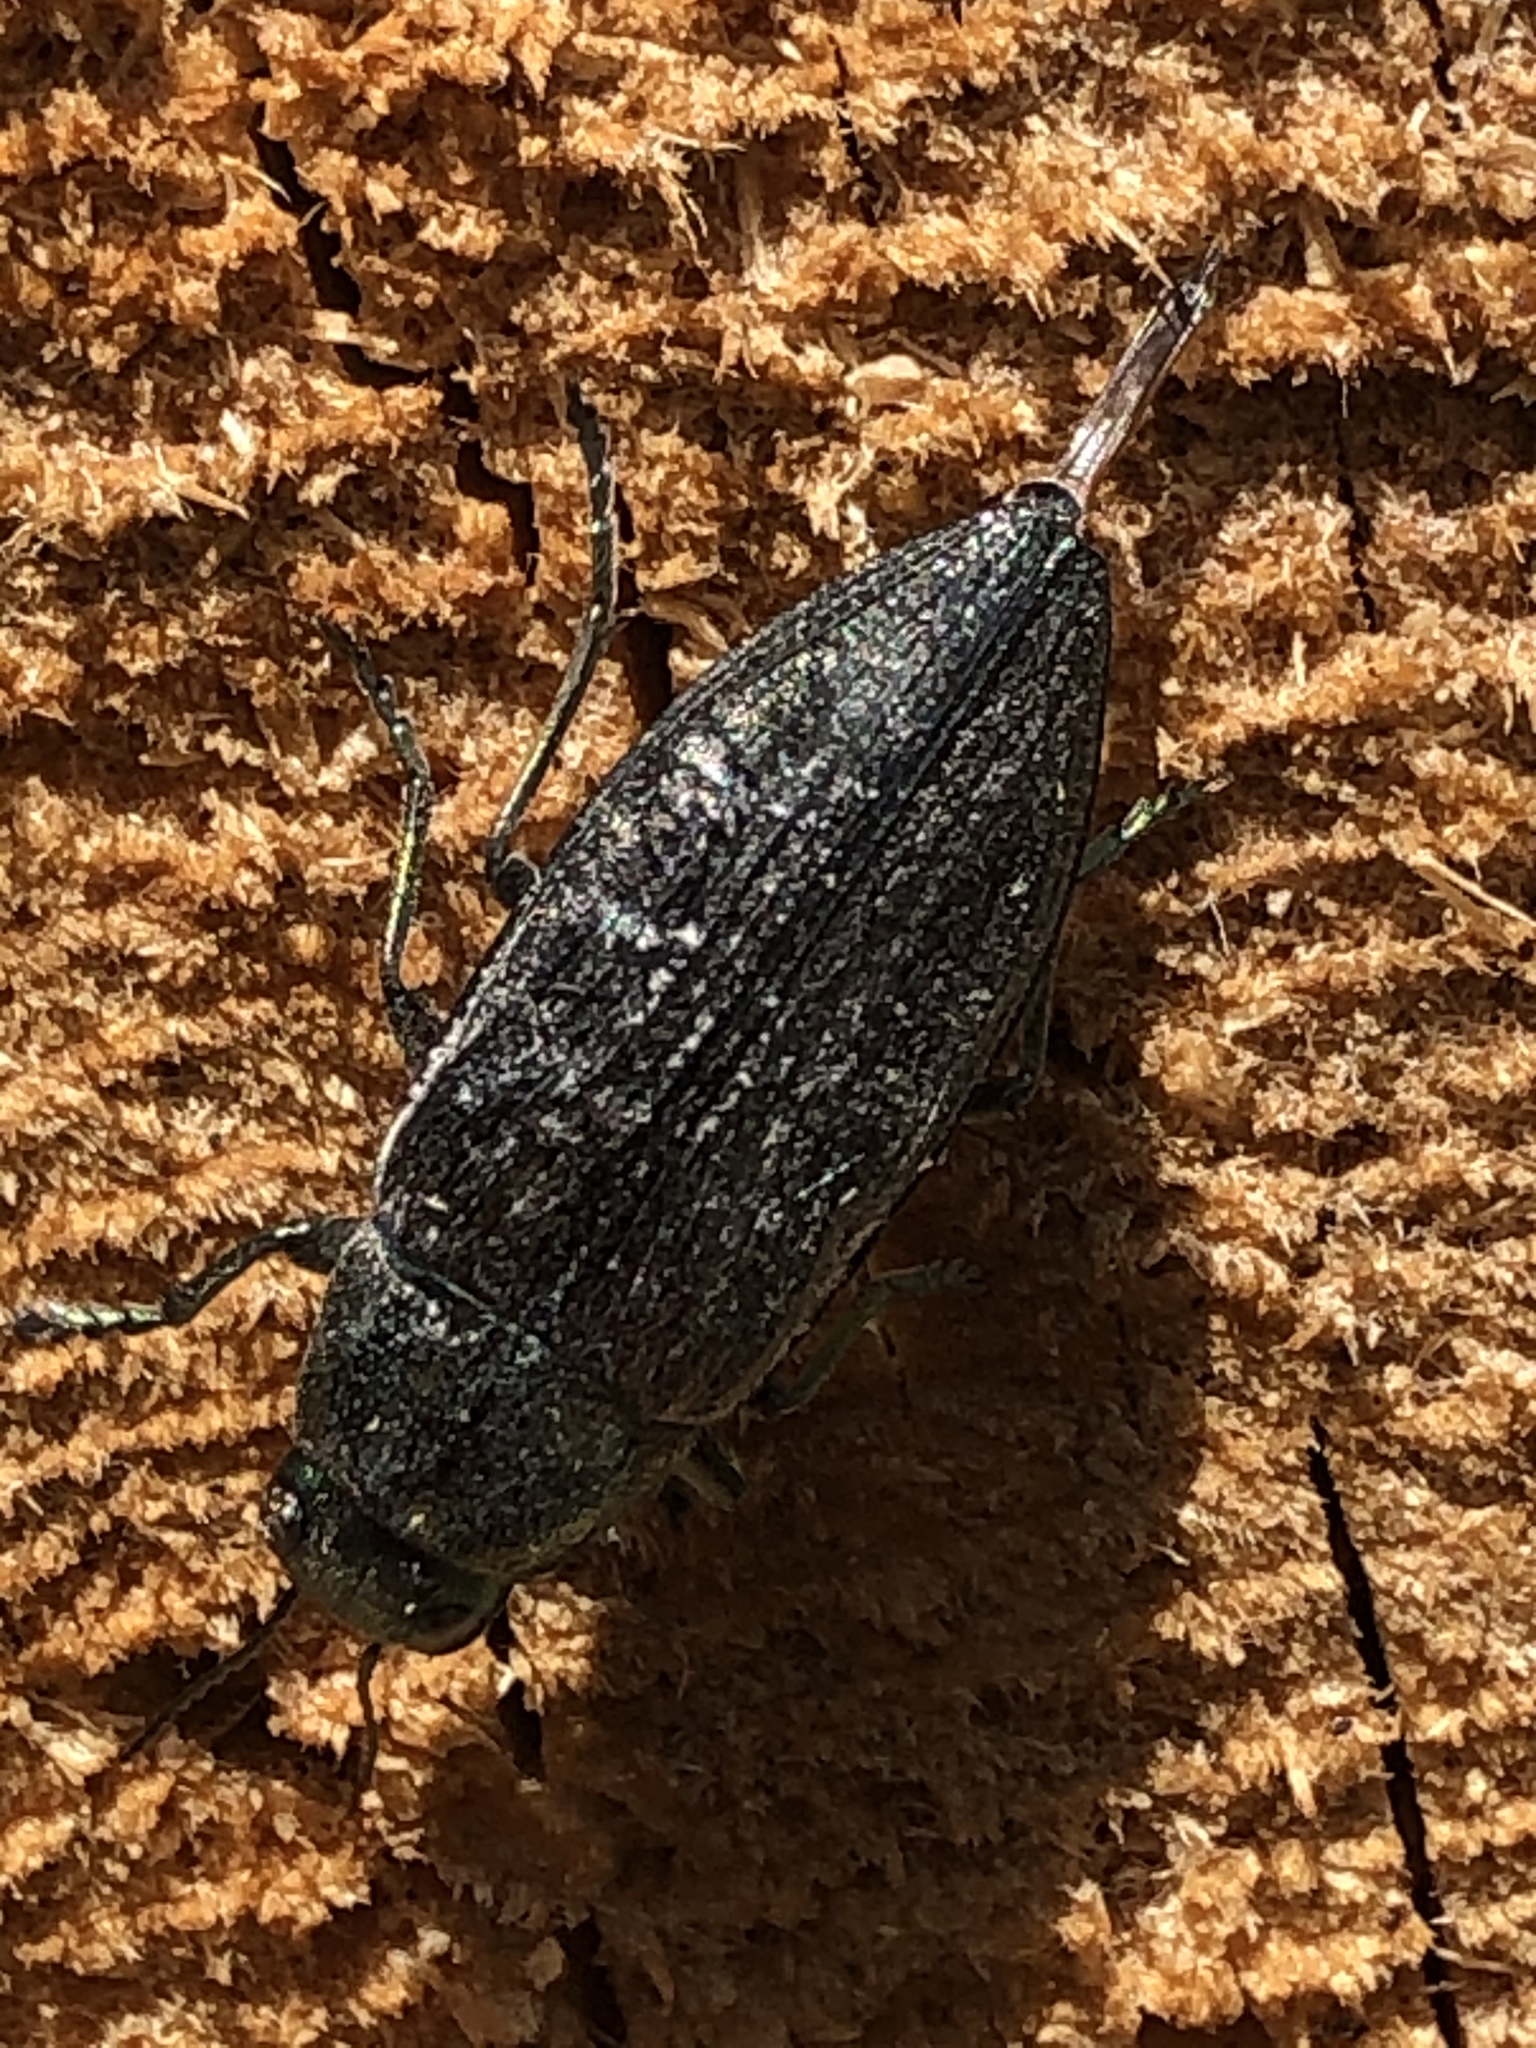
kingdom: Animalia
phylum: Arthropoda
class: Insecta
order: Coleoptera
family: Buprestidae
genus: Buprestis
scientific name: Buprestis haemorrhoidalis
